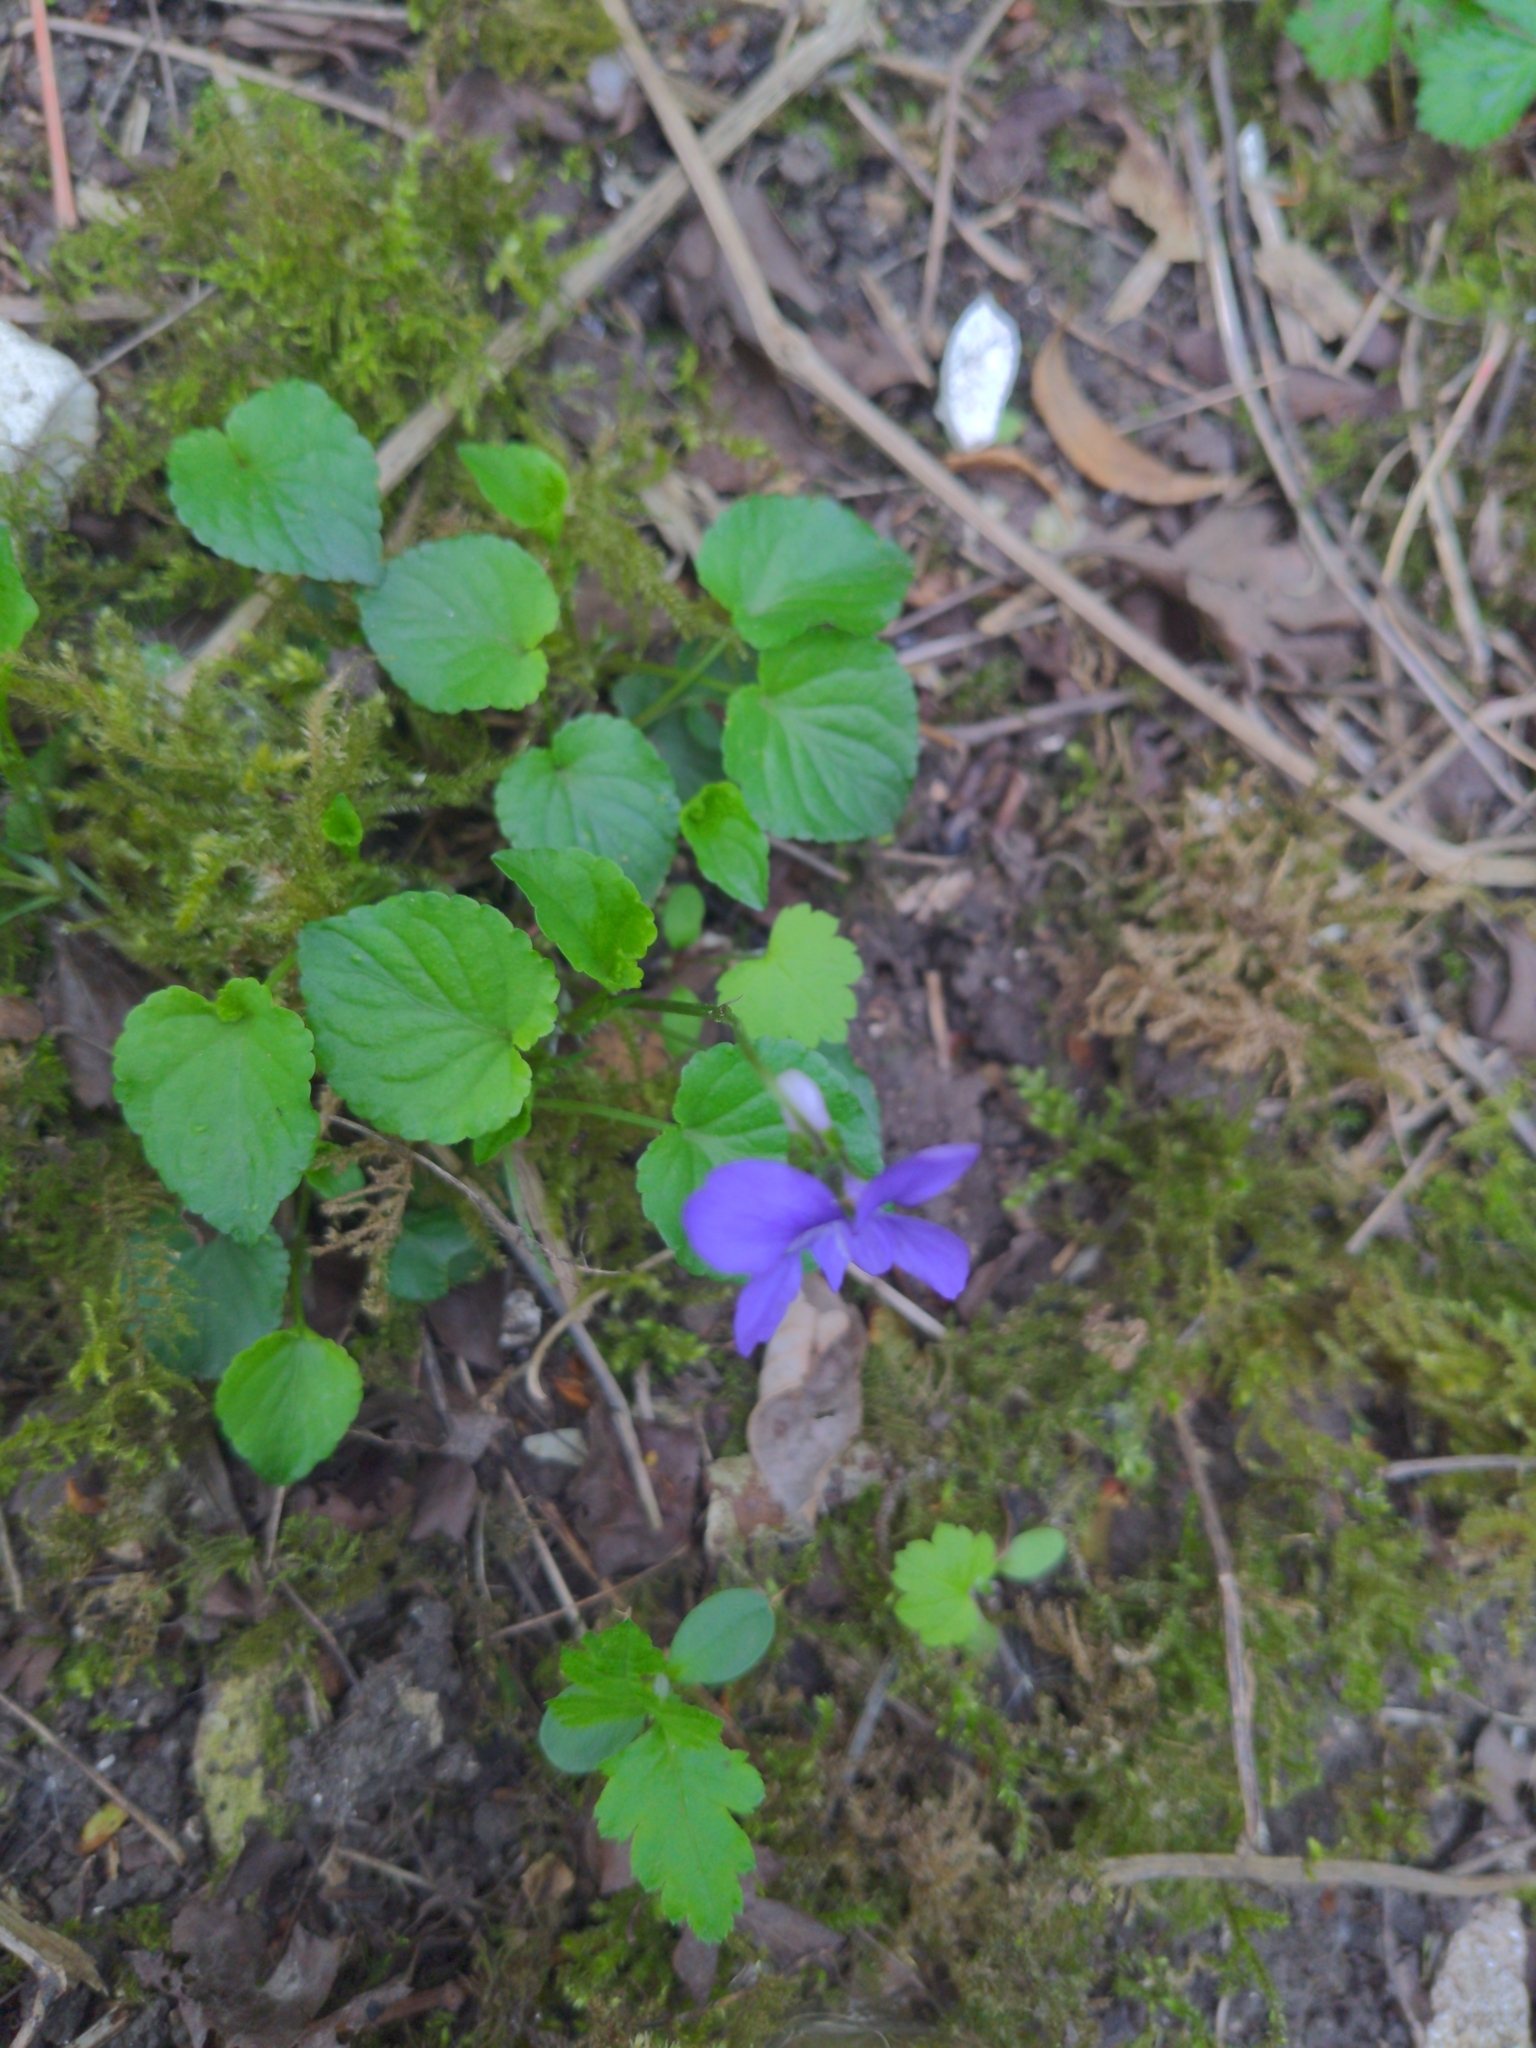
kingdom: Plantae
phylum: Tracheophyta
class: Magnoliopsida
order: Malpighiales
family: Violaceae
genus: Viola
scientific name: Viola riviniana
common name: Common dog-violet
